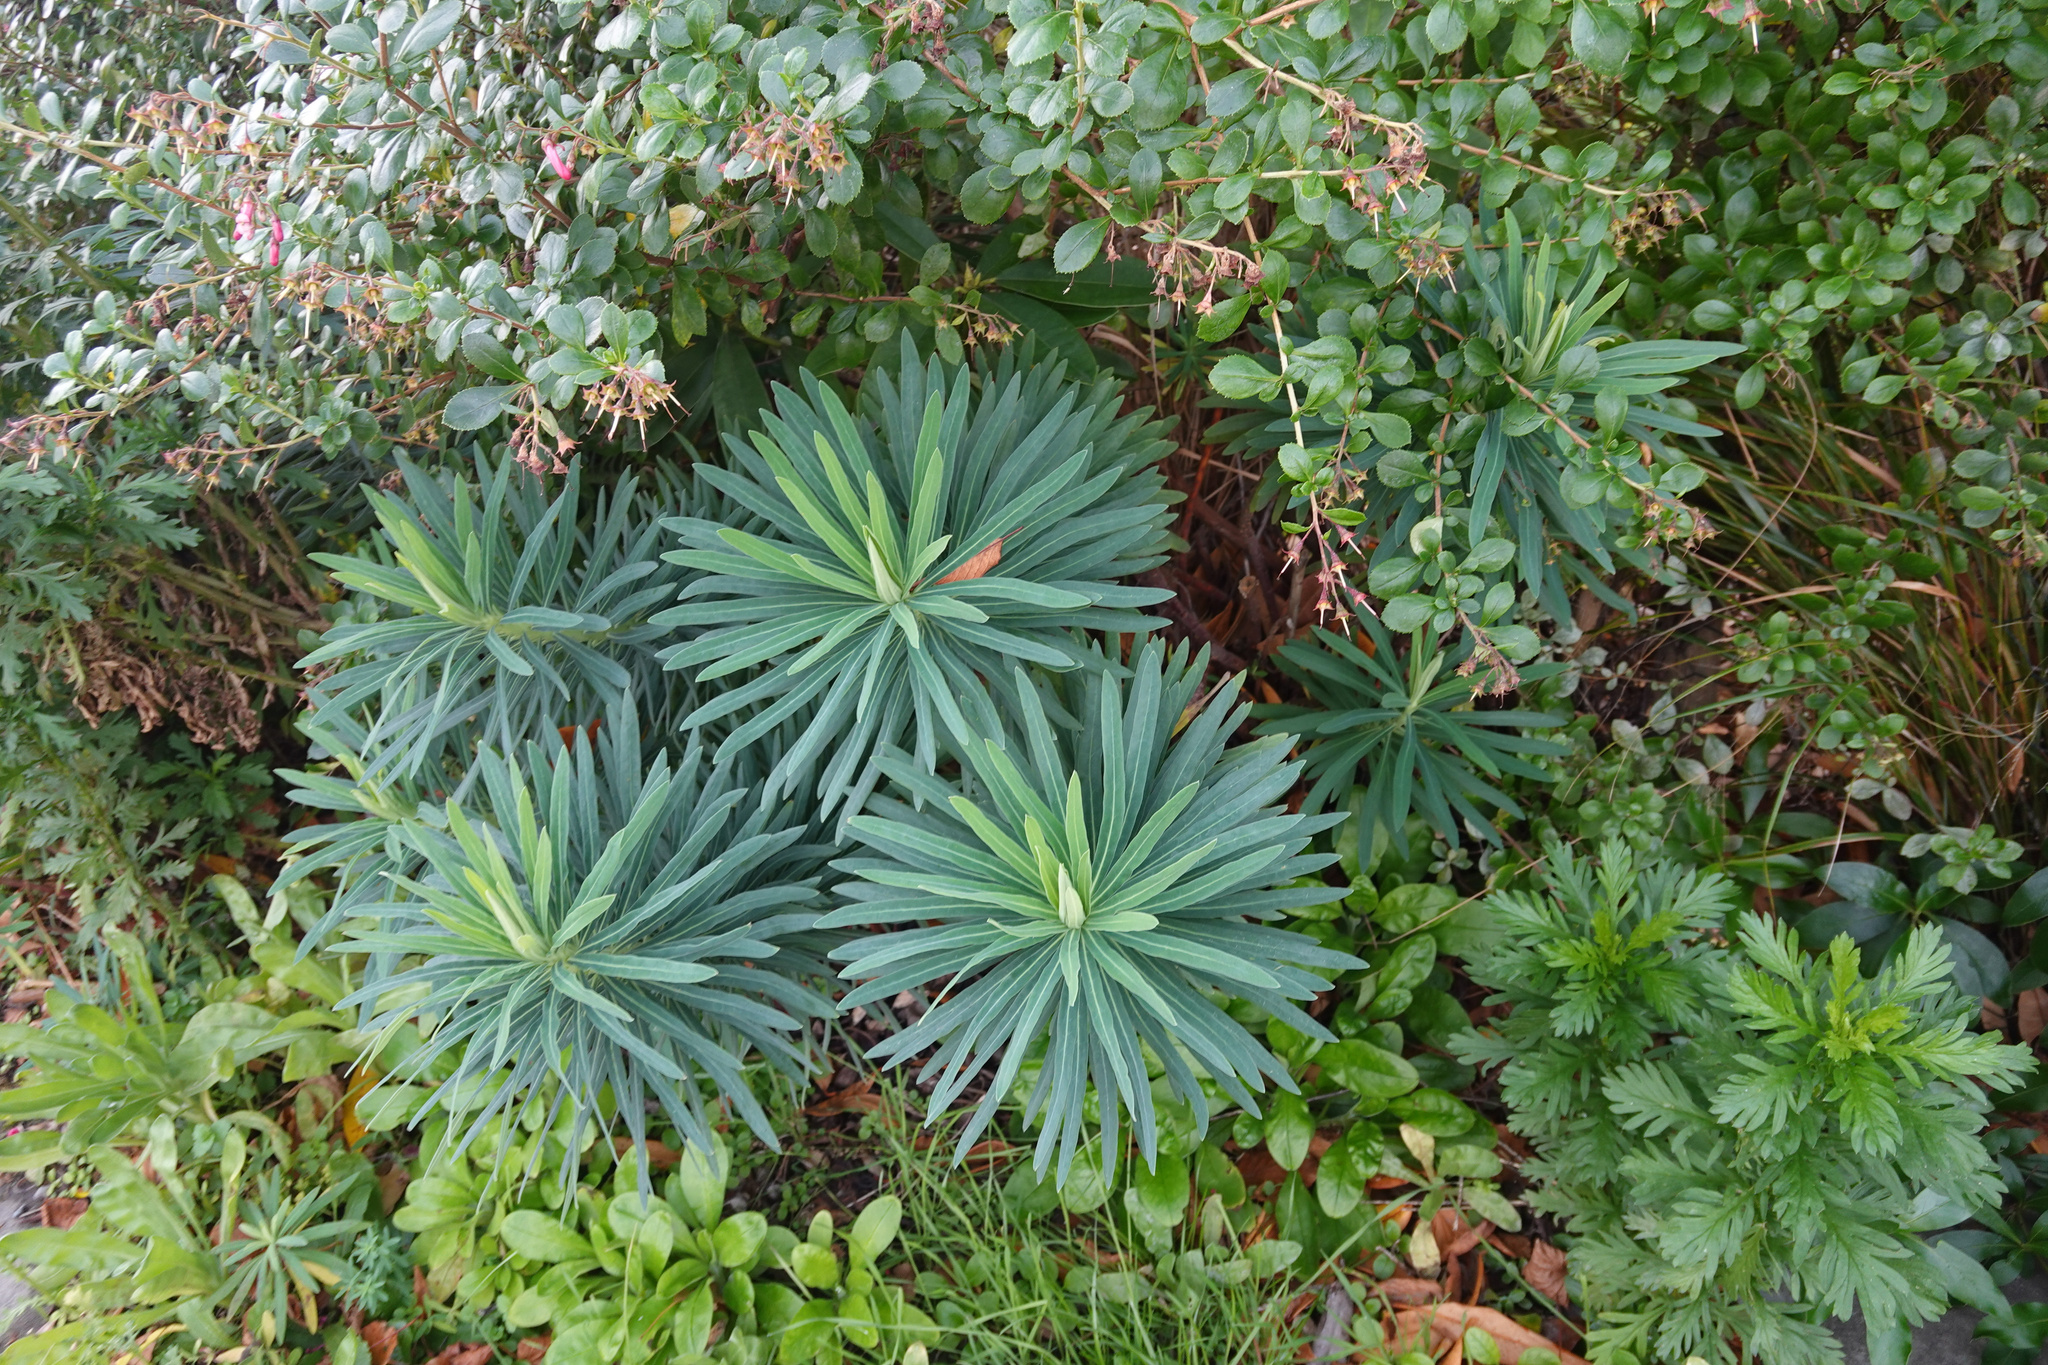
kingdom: Plantae
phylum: Tracheophyta
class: Magnoliopsida
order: Malpighiales
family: Euphorbiaceae
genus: Euphorbia
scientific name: Euphorbia characias
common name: Mediterranean spurge
